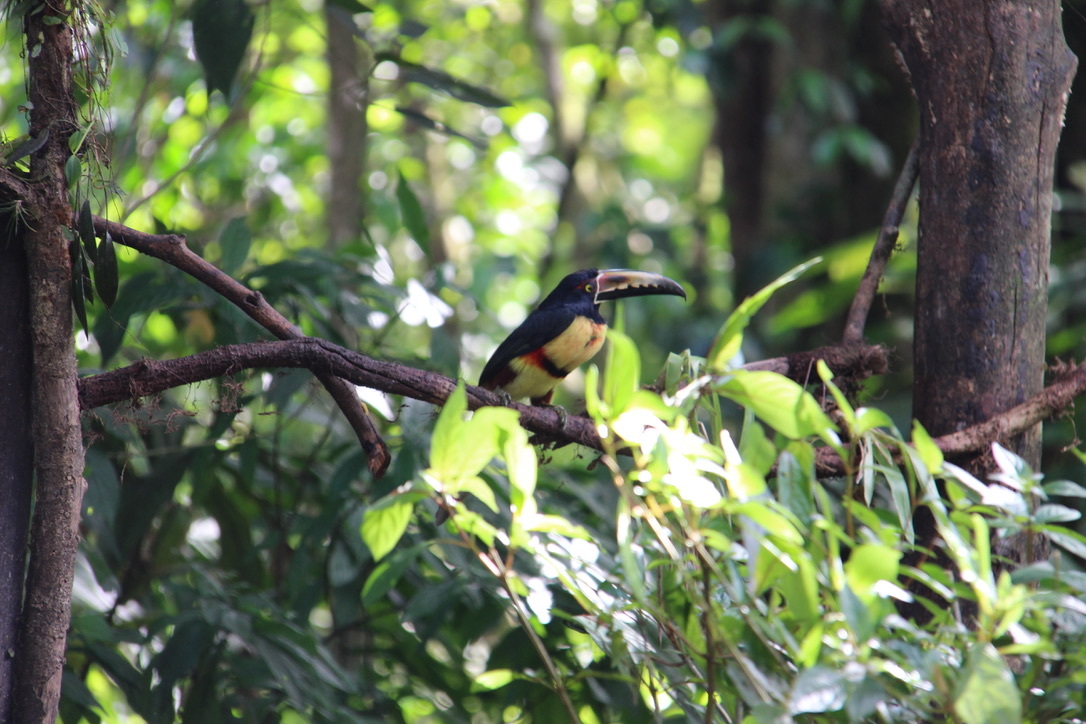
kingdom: Animalia
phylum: Chordata
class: Aves
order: Piciformes
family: Ramphastidae
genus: Pteroglossus
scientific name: Pteroglossus torquatus
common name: Collared aracari
